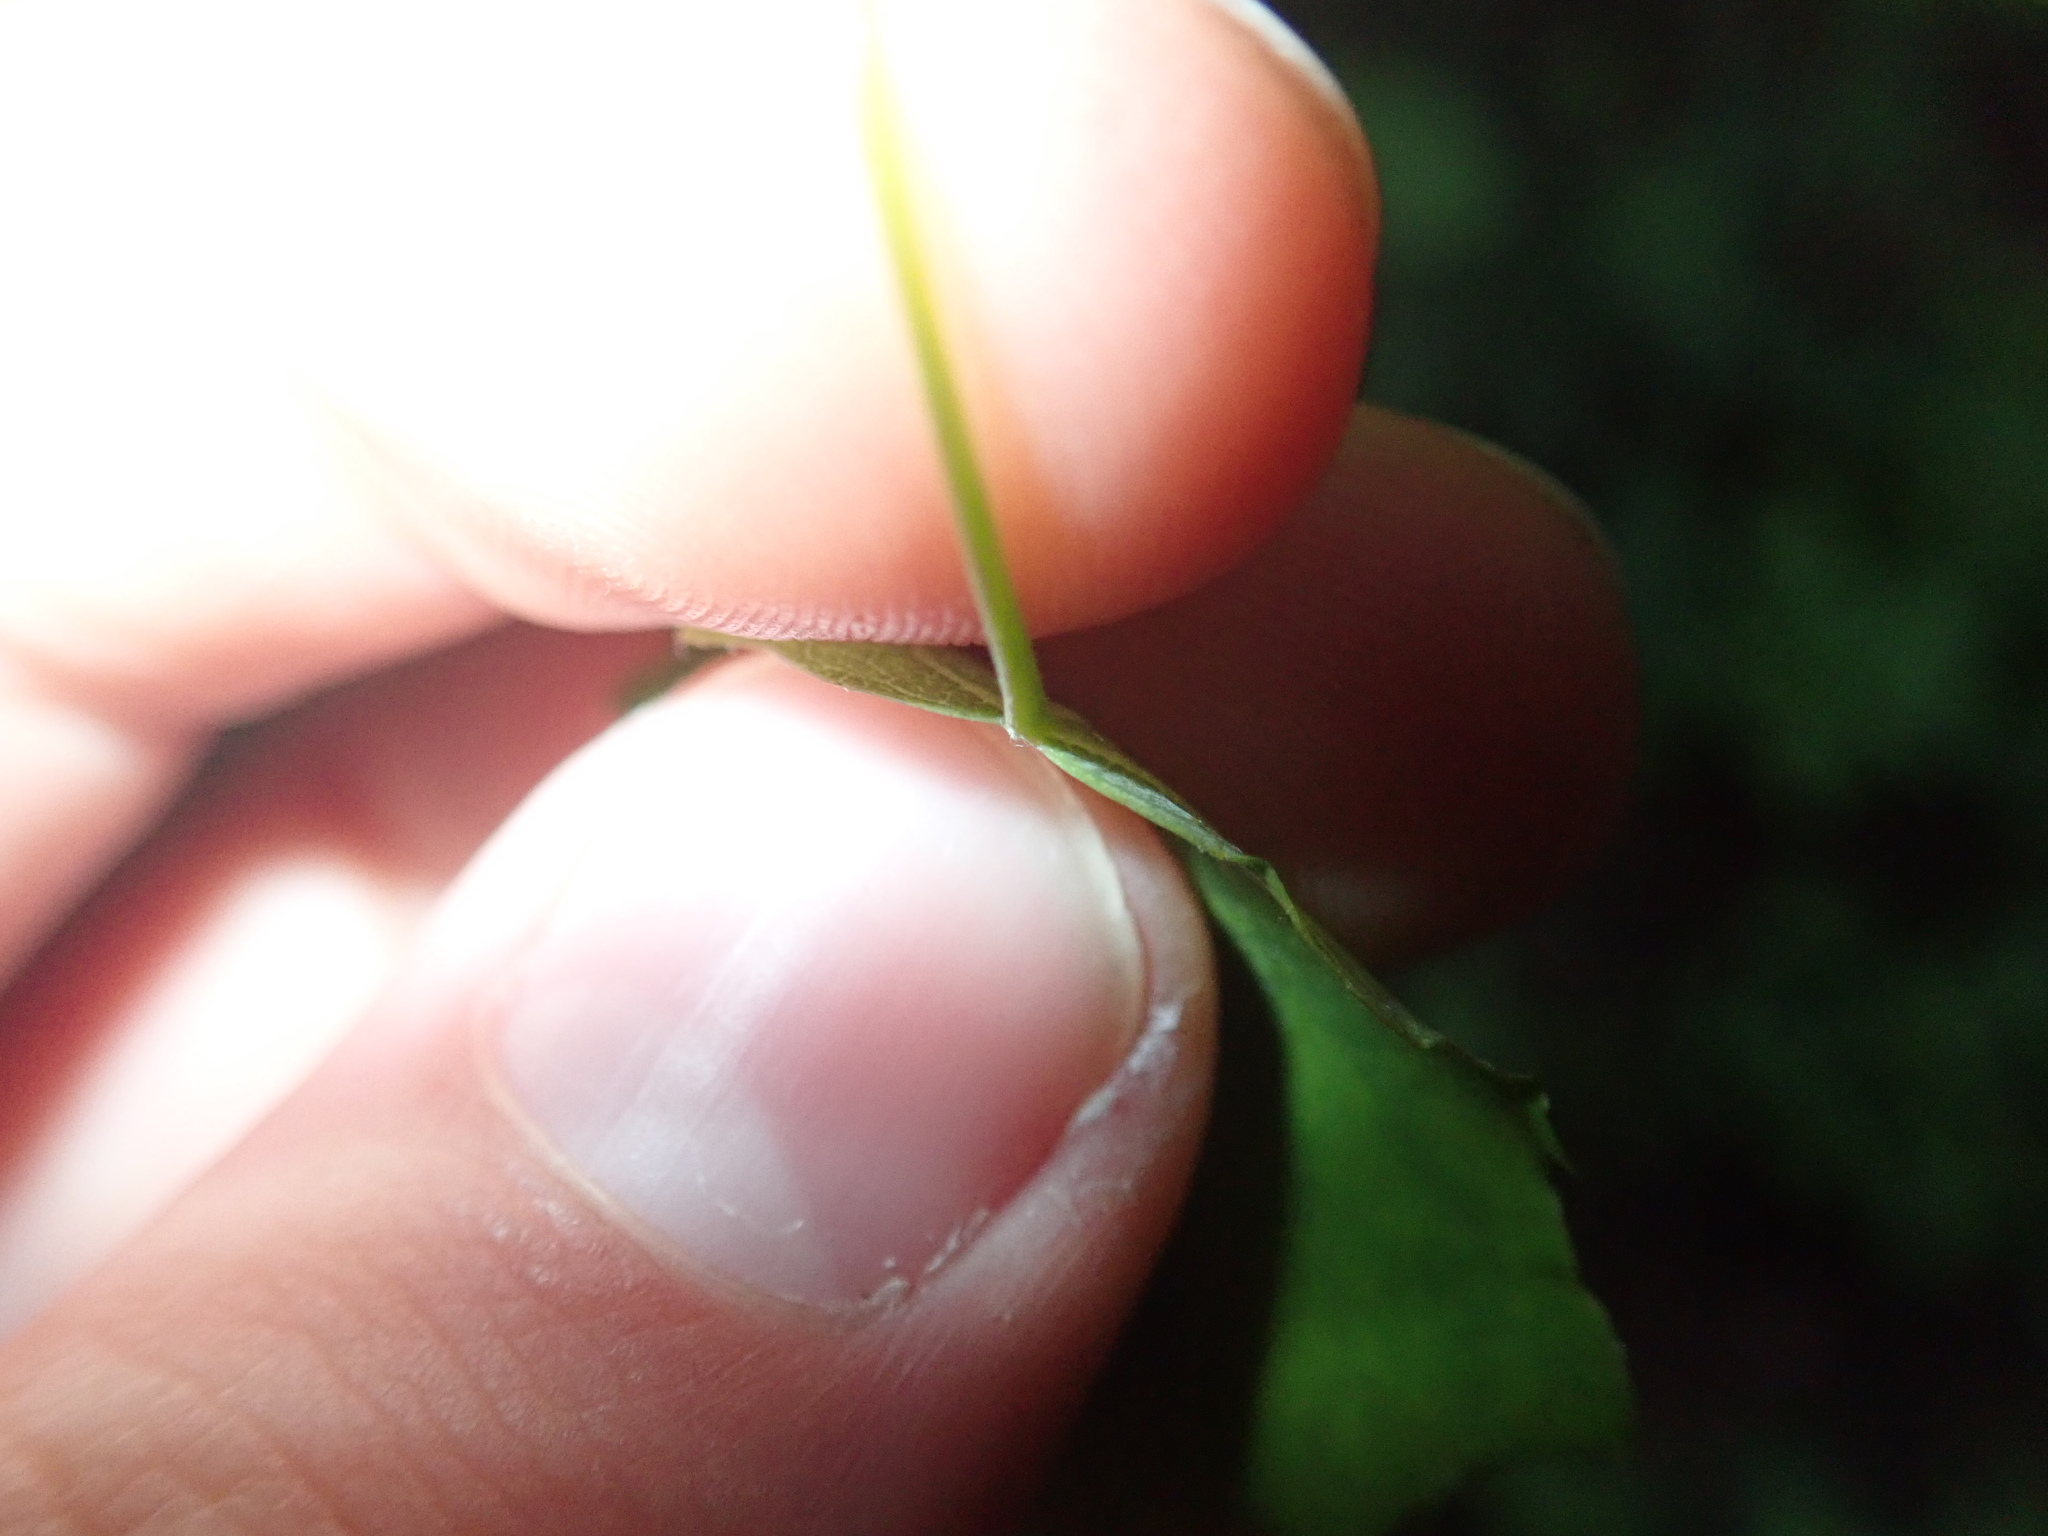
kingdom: Plantae
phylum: Tracheophyta
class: Magnoliopsida
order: Malpighiales
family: Salicaceae
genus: Populus
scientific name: Populus tremula
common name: European aspen
